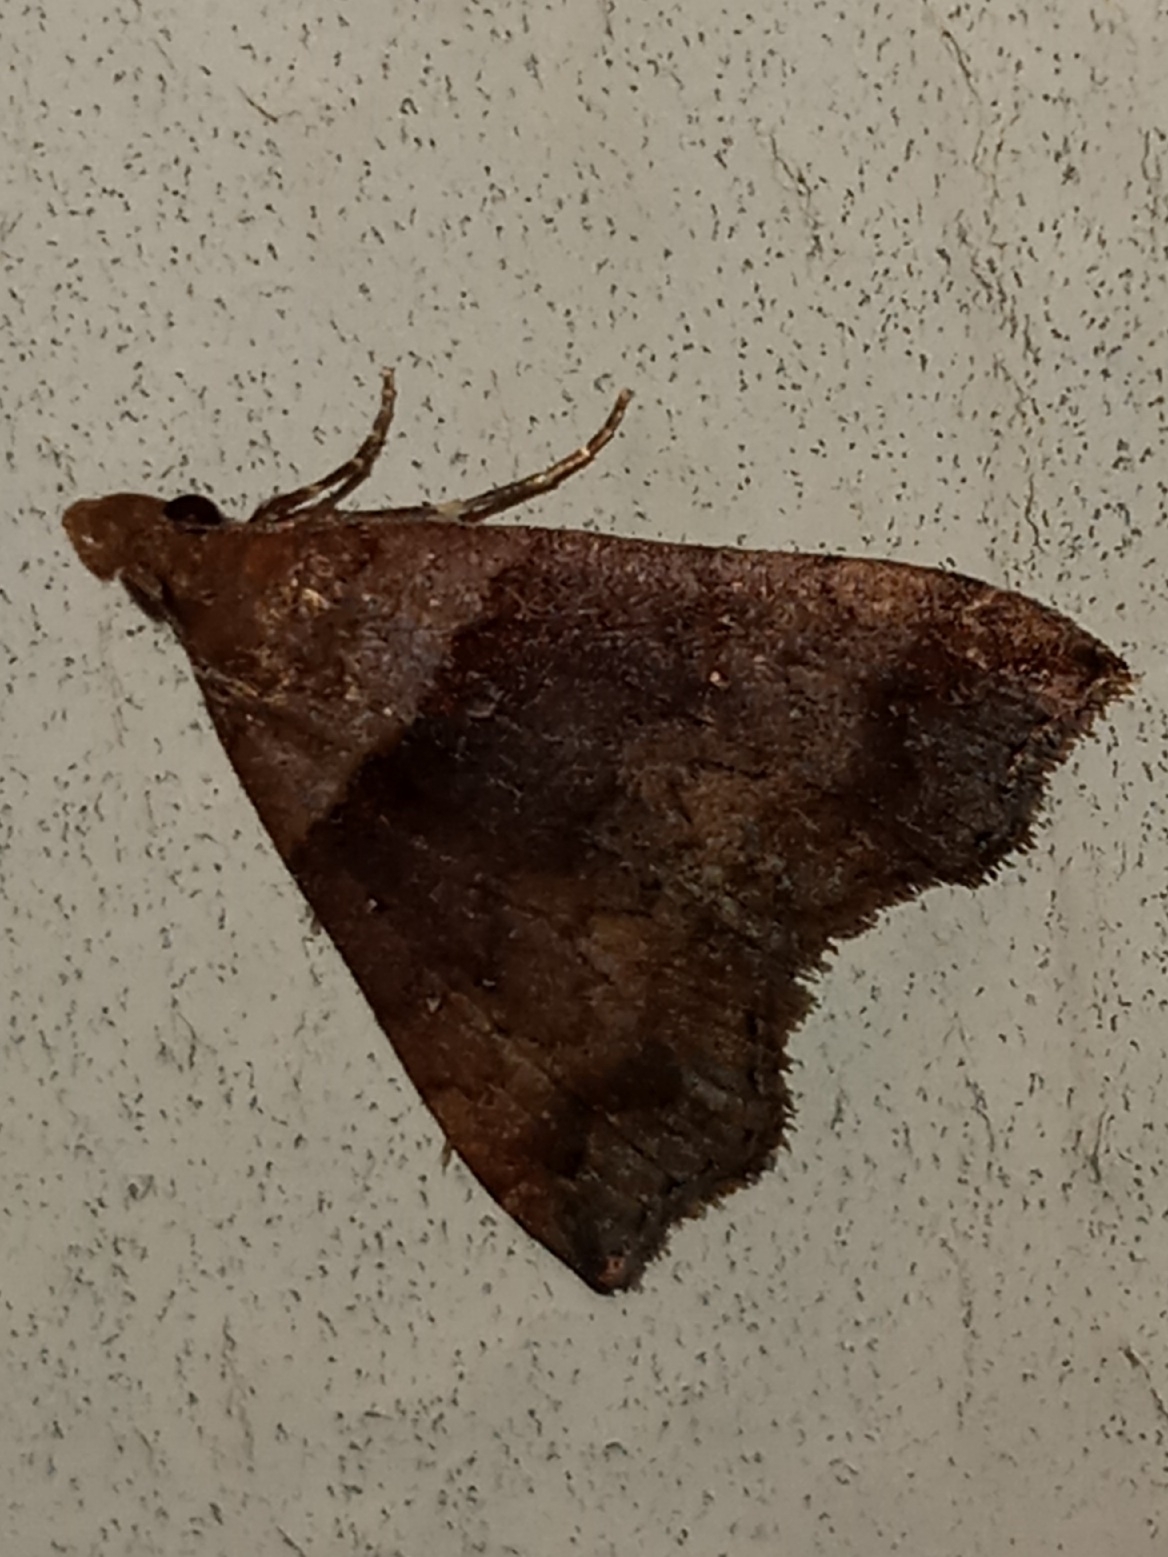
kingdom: Animalia
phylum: Arthropoda
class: Insecta
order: Lepidoptera
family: Erebidae
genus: Lascoria
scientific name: Lascoria ambigualis
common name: Ambiguous moth
